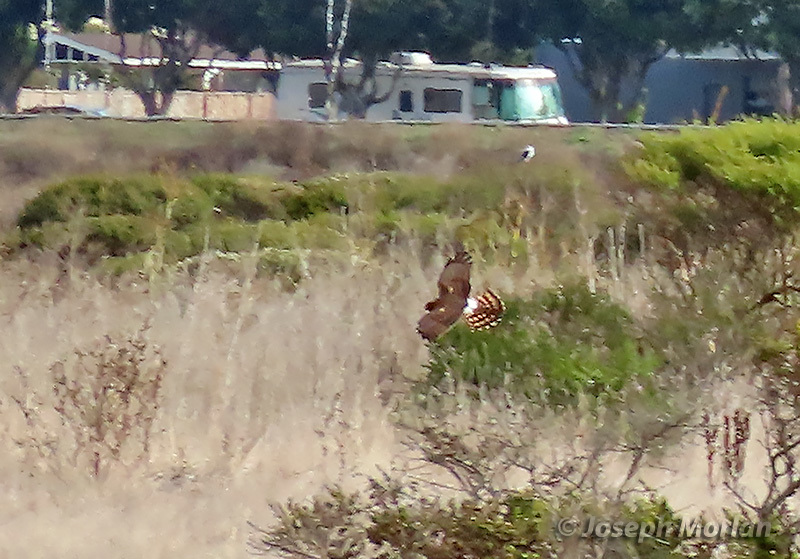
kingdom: Animalia
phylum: Chordata
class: Aves
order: Accipitriformes
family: Accipitridae
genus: Circus
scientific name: Circus cyaneus
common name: Hen harrier
